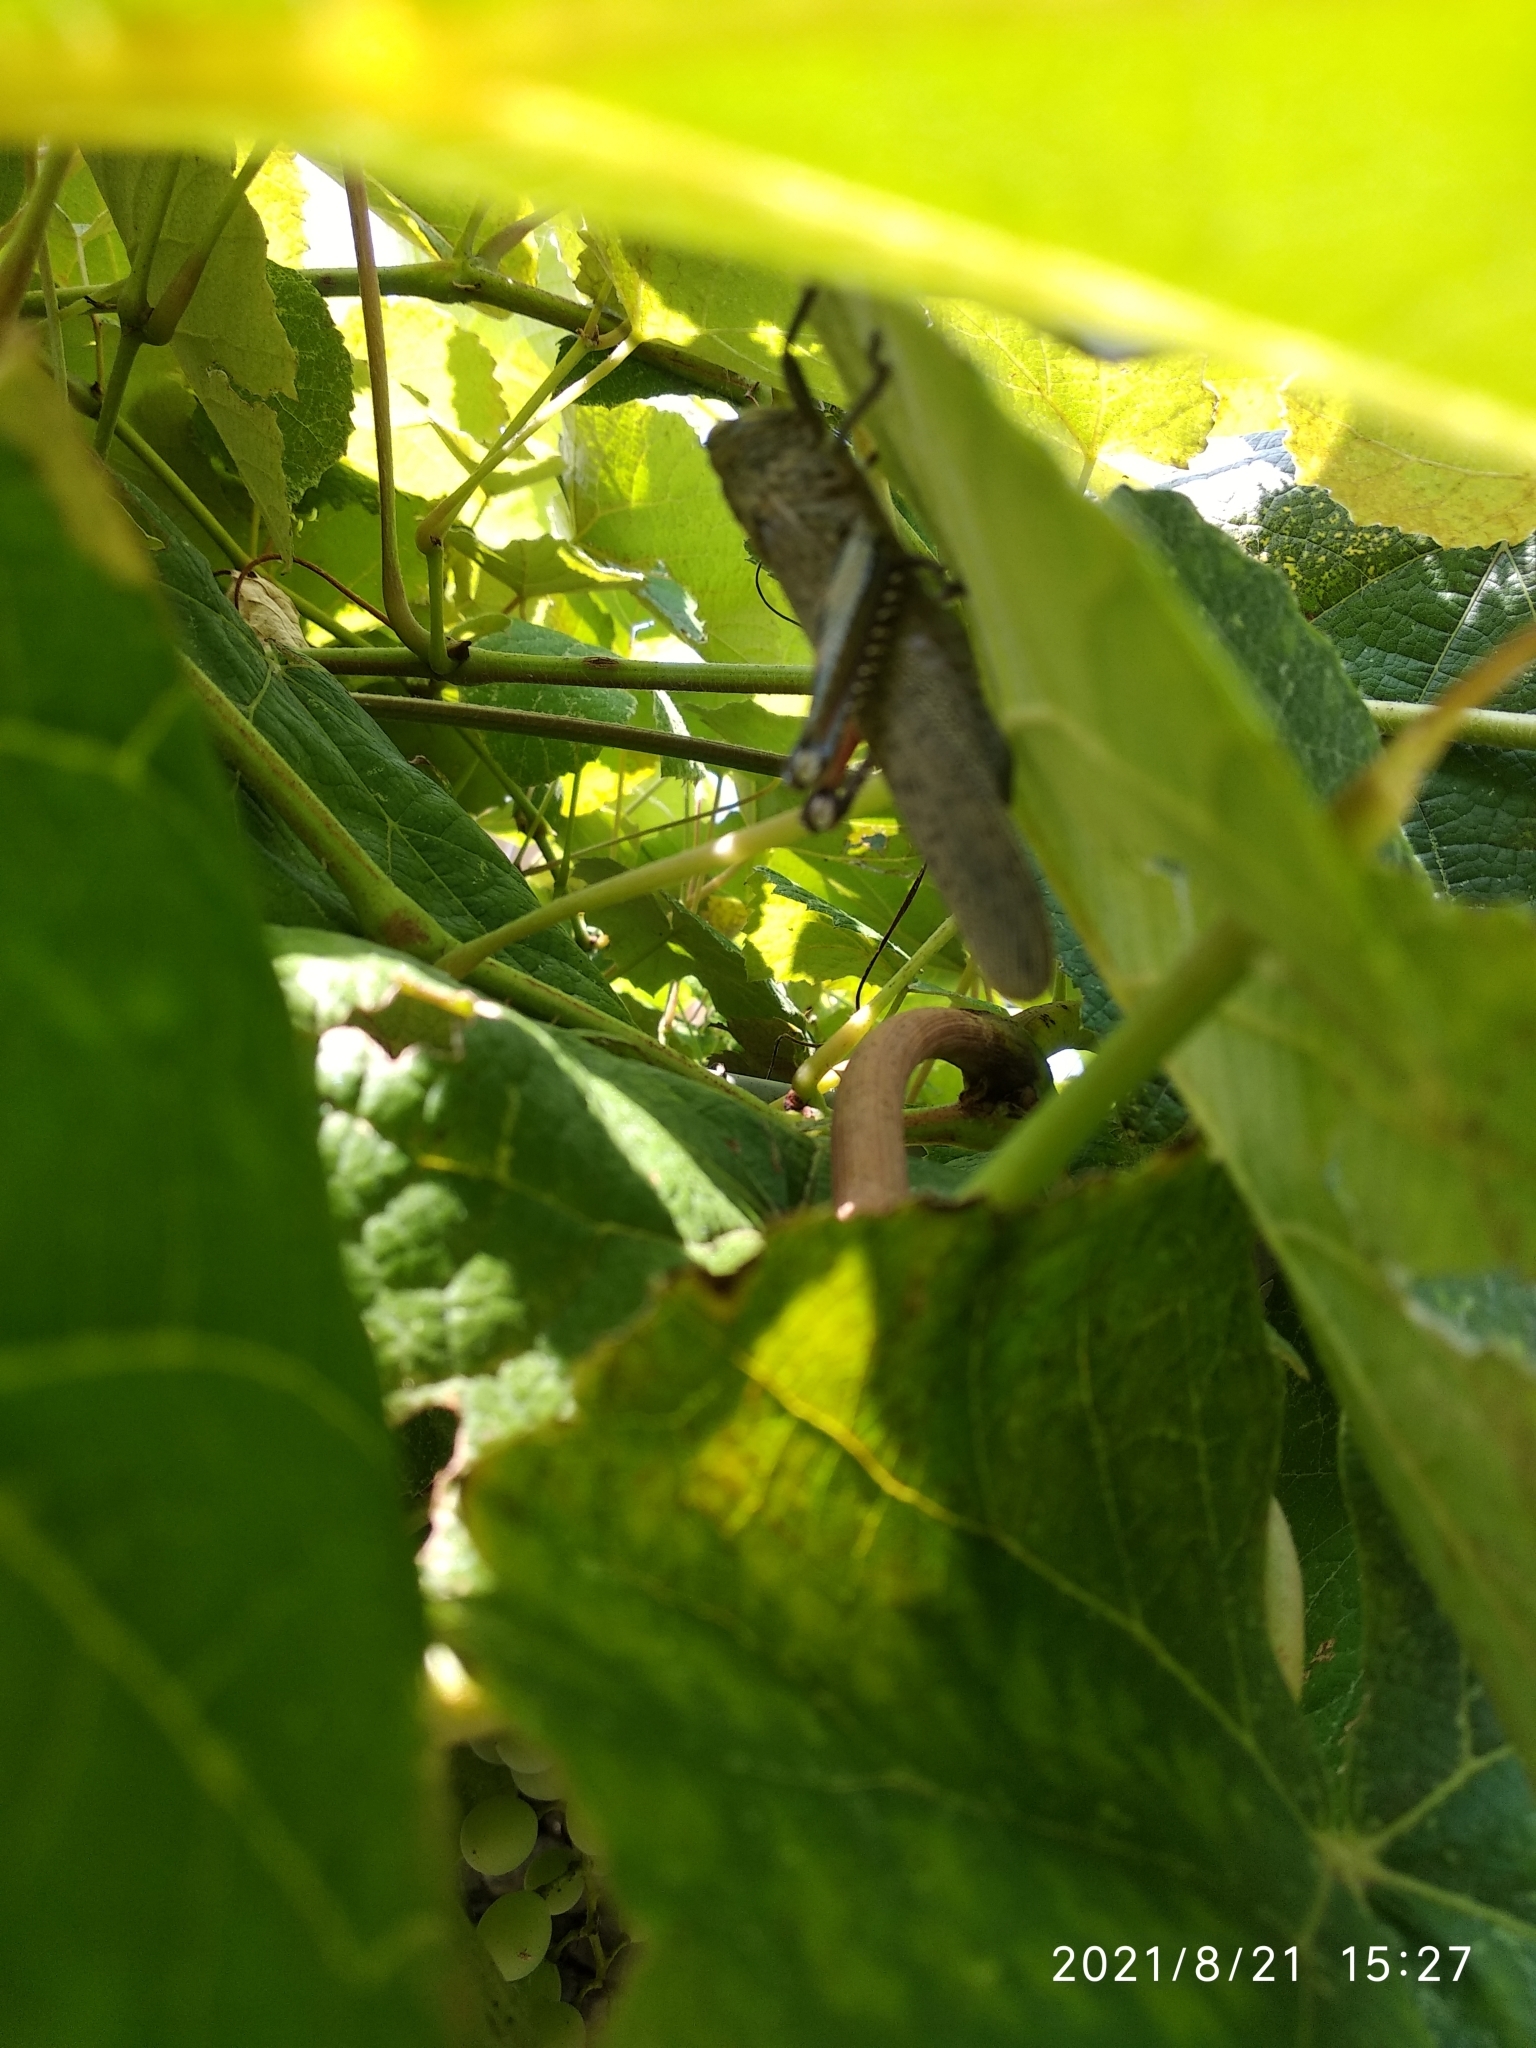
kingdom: Animalia
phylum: Arthropoda
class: Insecta
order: Orthoptera
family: Acrididae
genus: Anacridium
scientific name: Anacridium aegyptium
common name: Egyptian grasshopper
